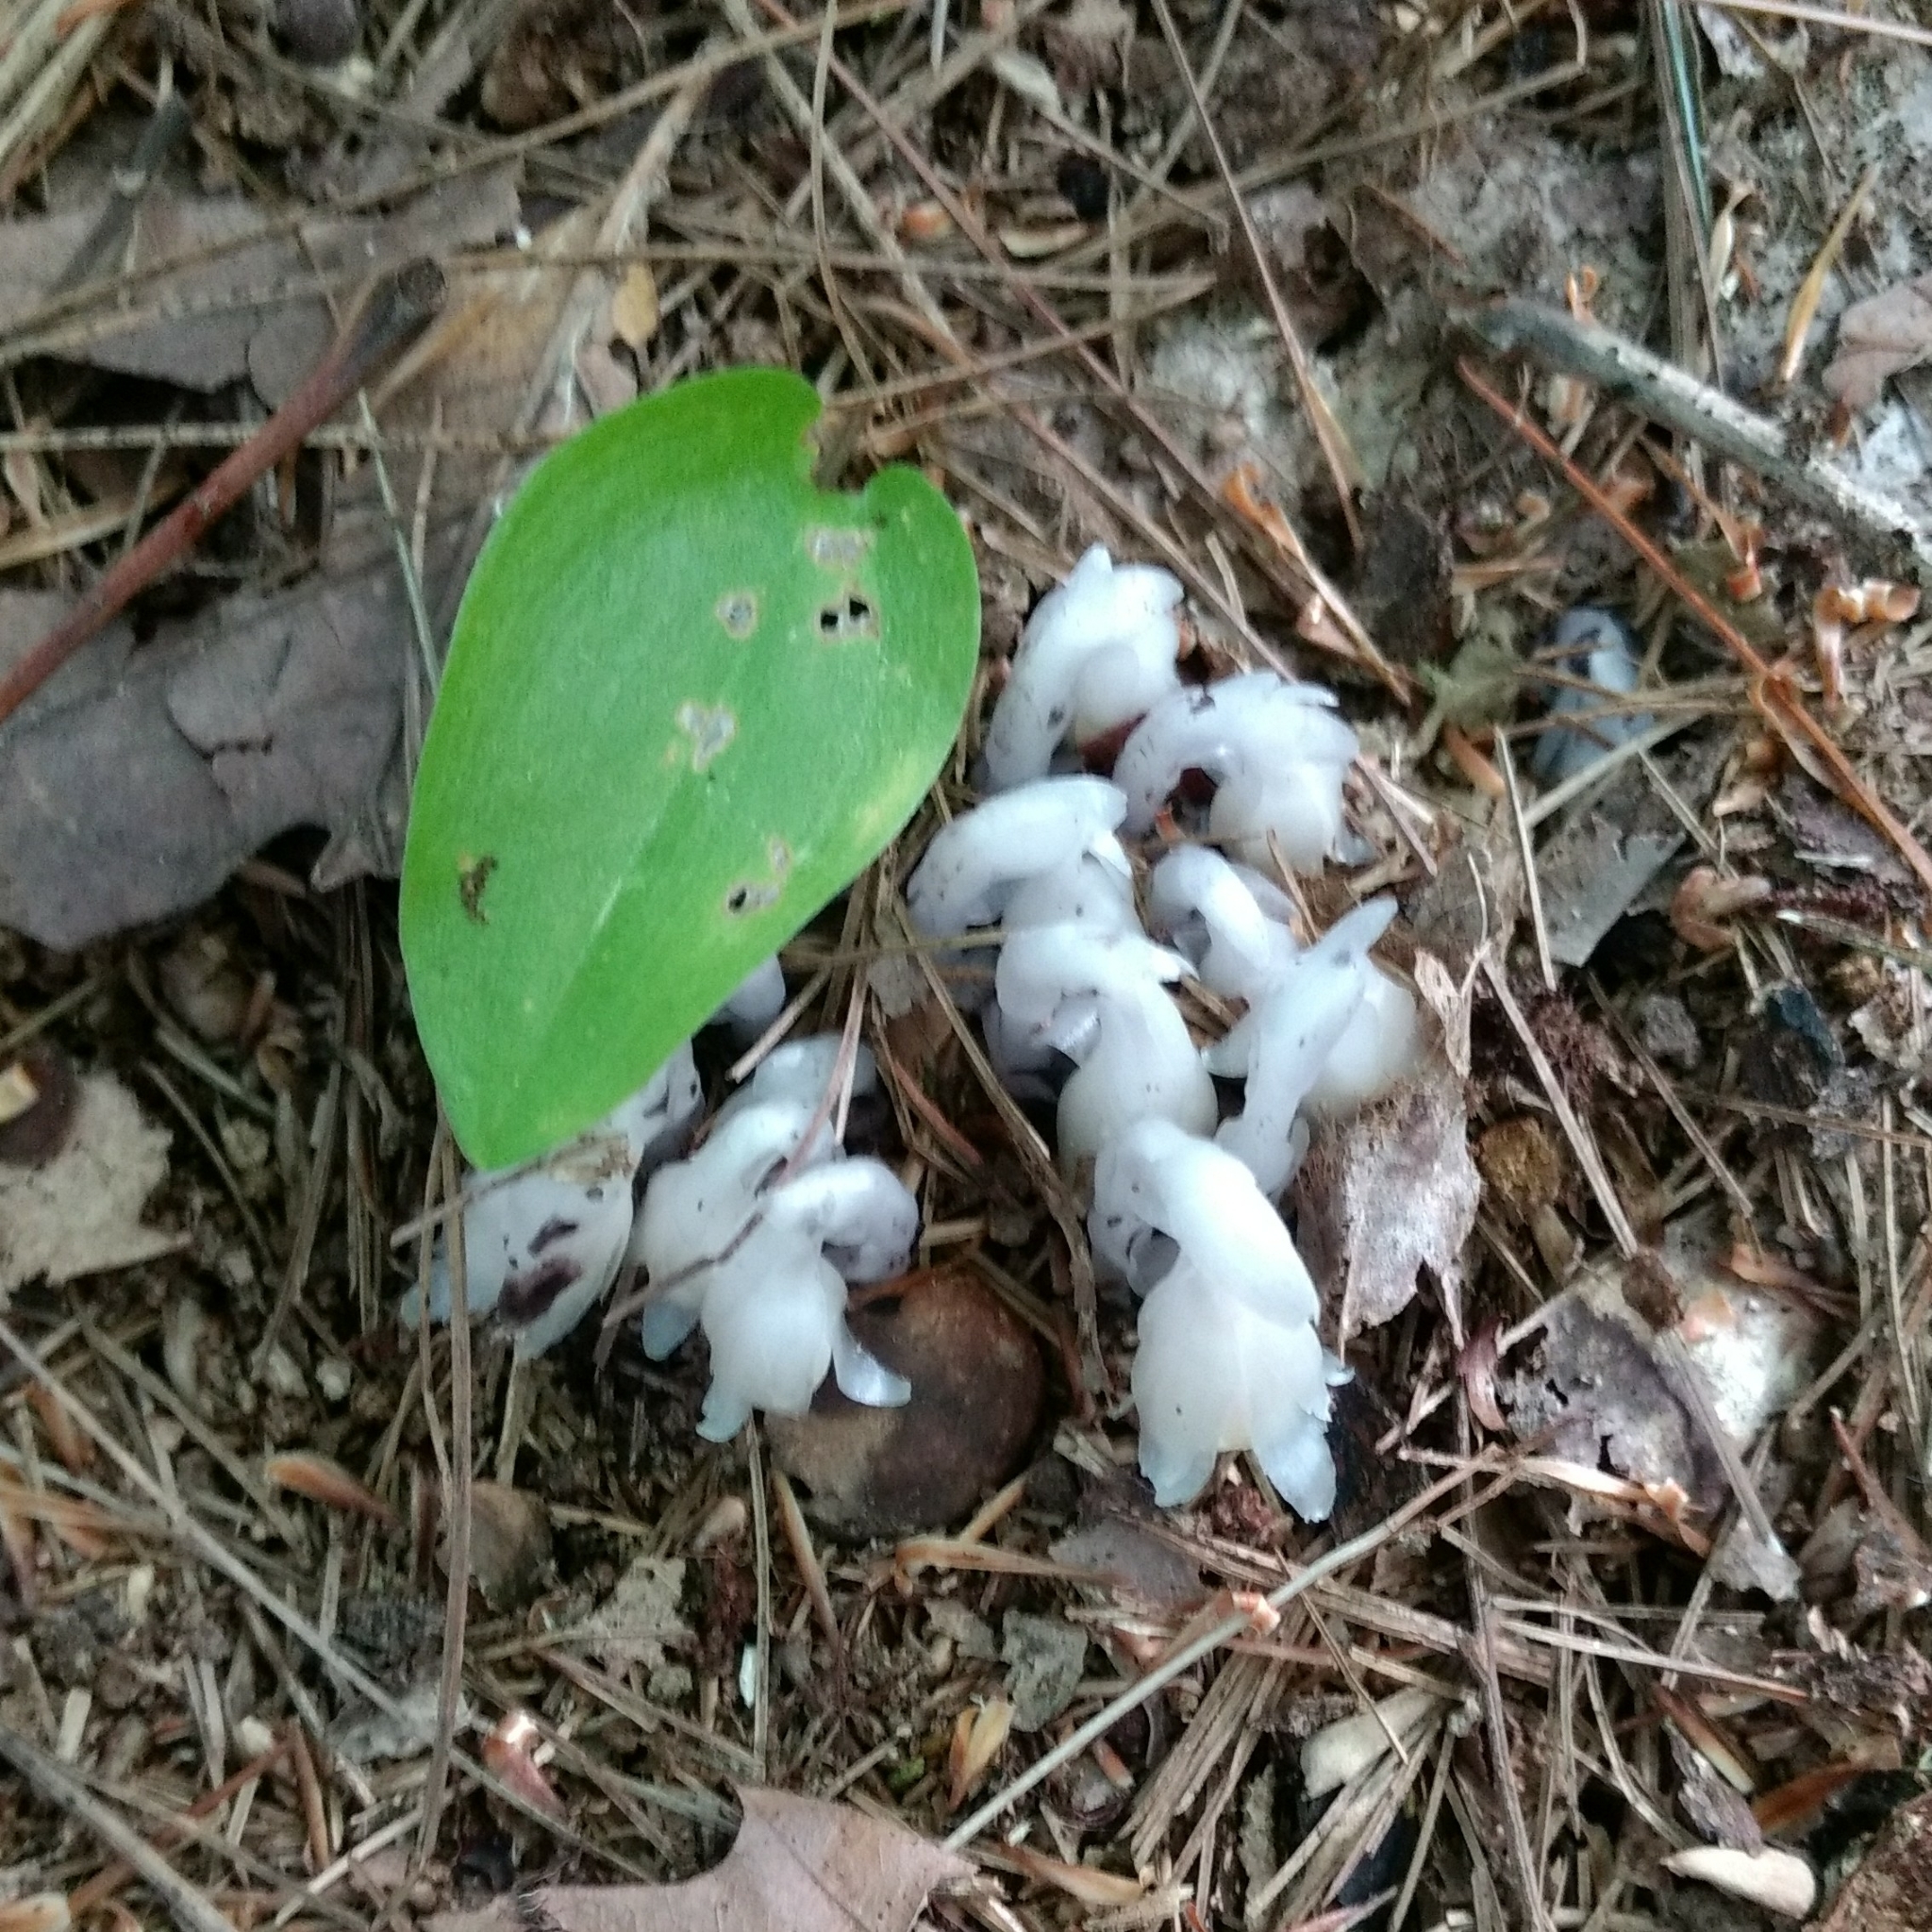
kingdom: Plantae
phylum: Tracheophyta
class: Magnoliopsida
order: Ericales
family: Ericaceae
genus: Monotropa
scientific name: Monotropa uniflora
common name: Convulsion root
